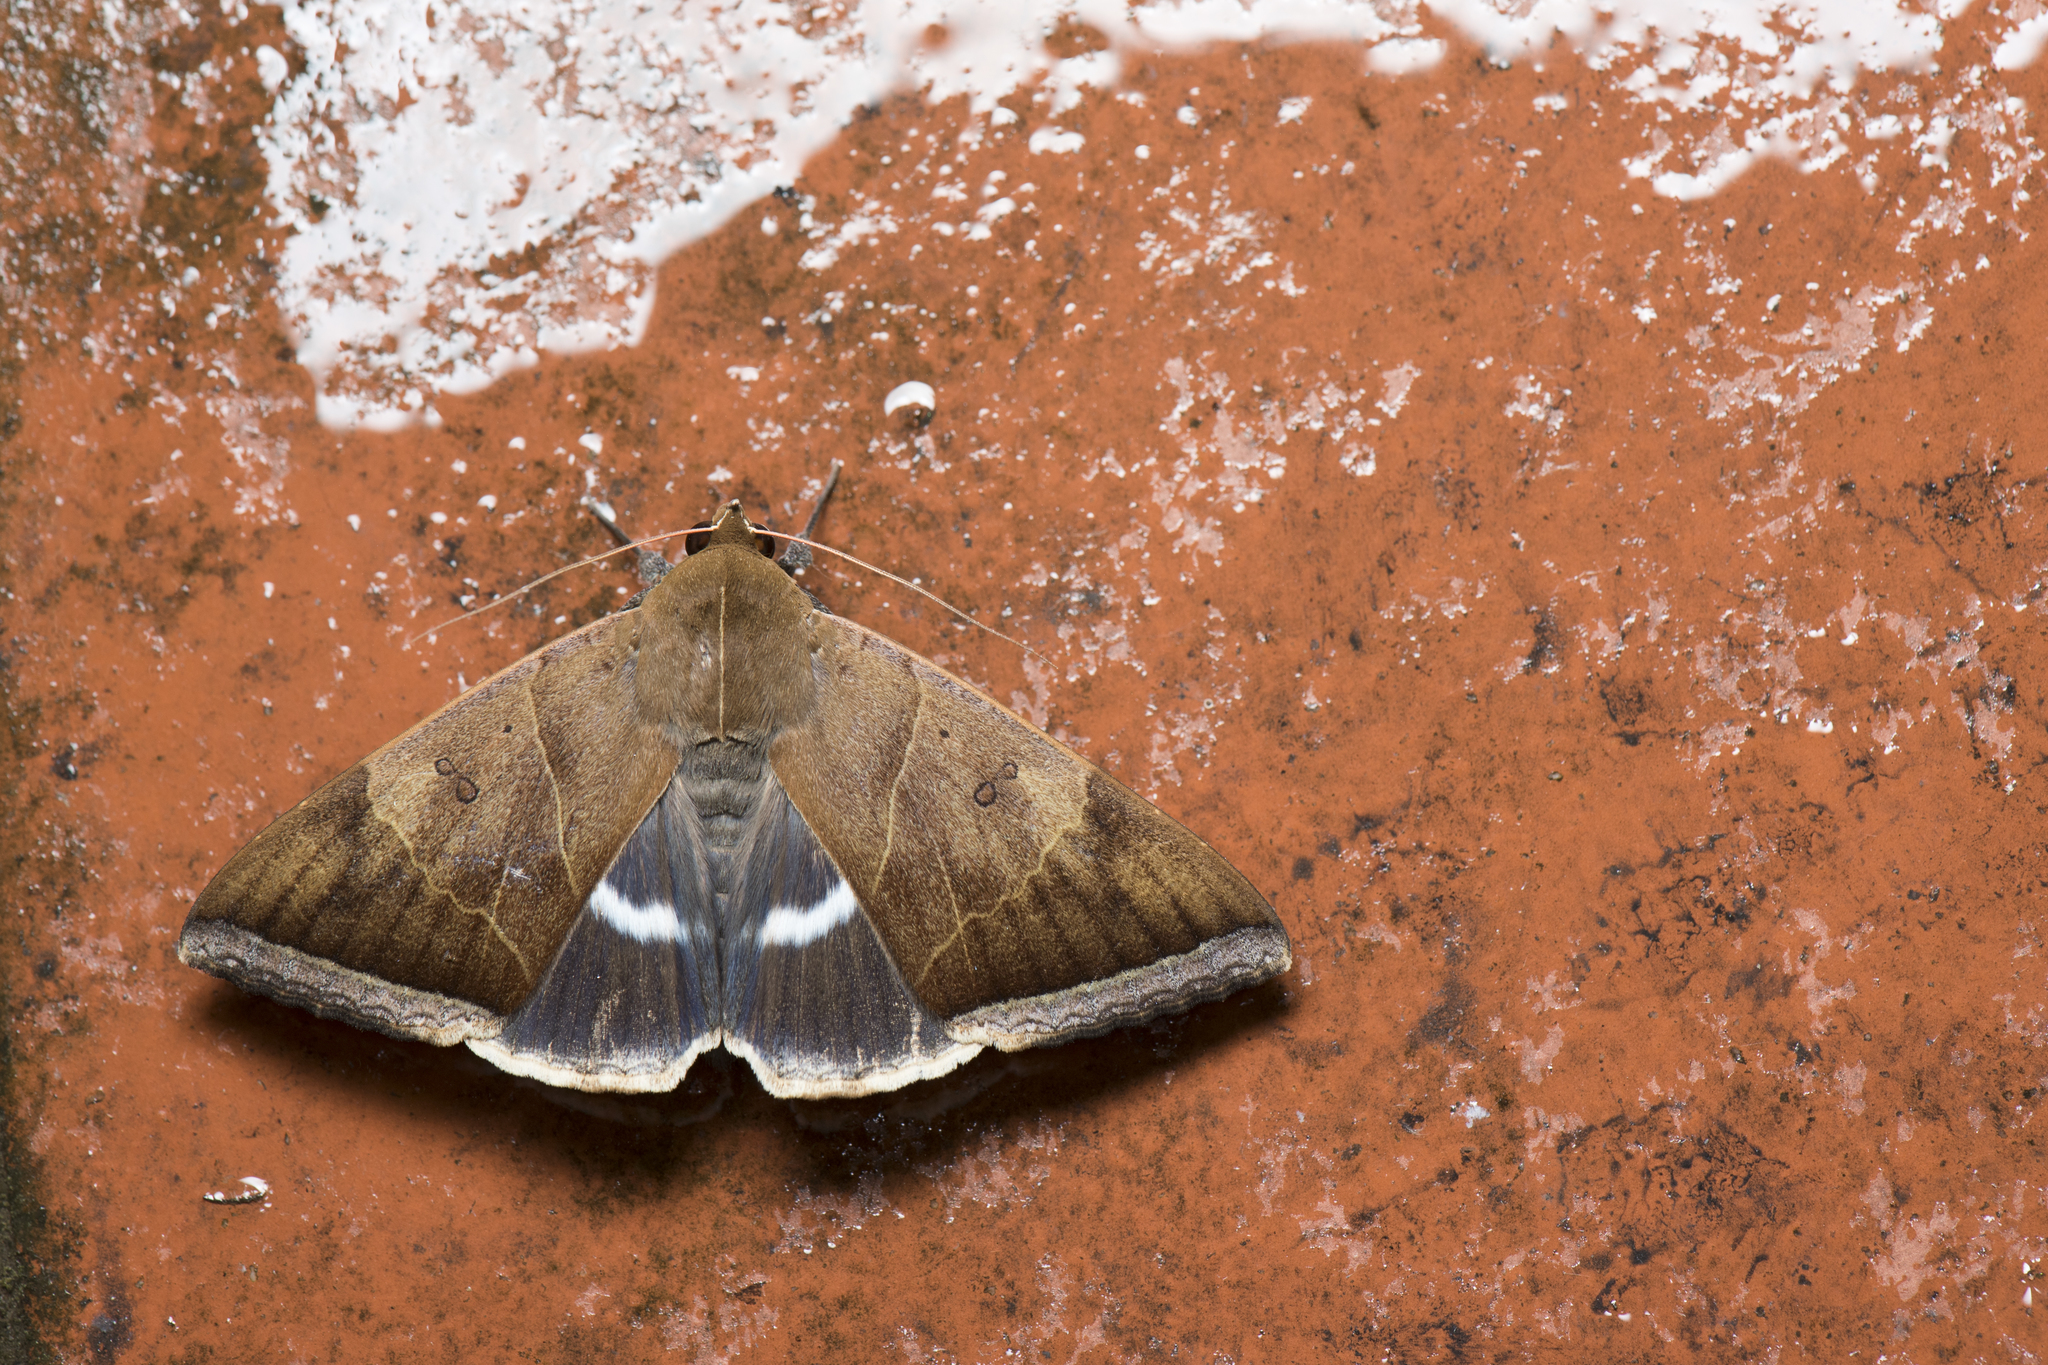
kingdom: Animalia
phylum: Arthropoda
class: Insecta
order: Lepidoptera
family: Erebidae
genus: Artena
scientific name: Artena dotata
